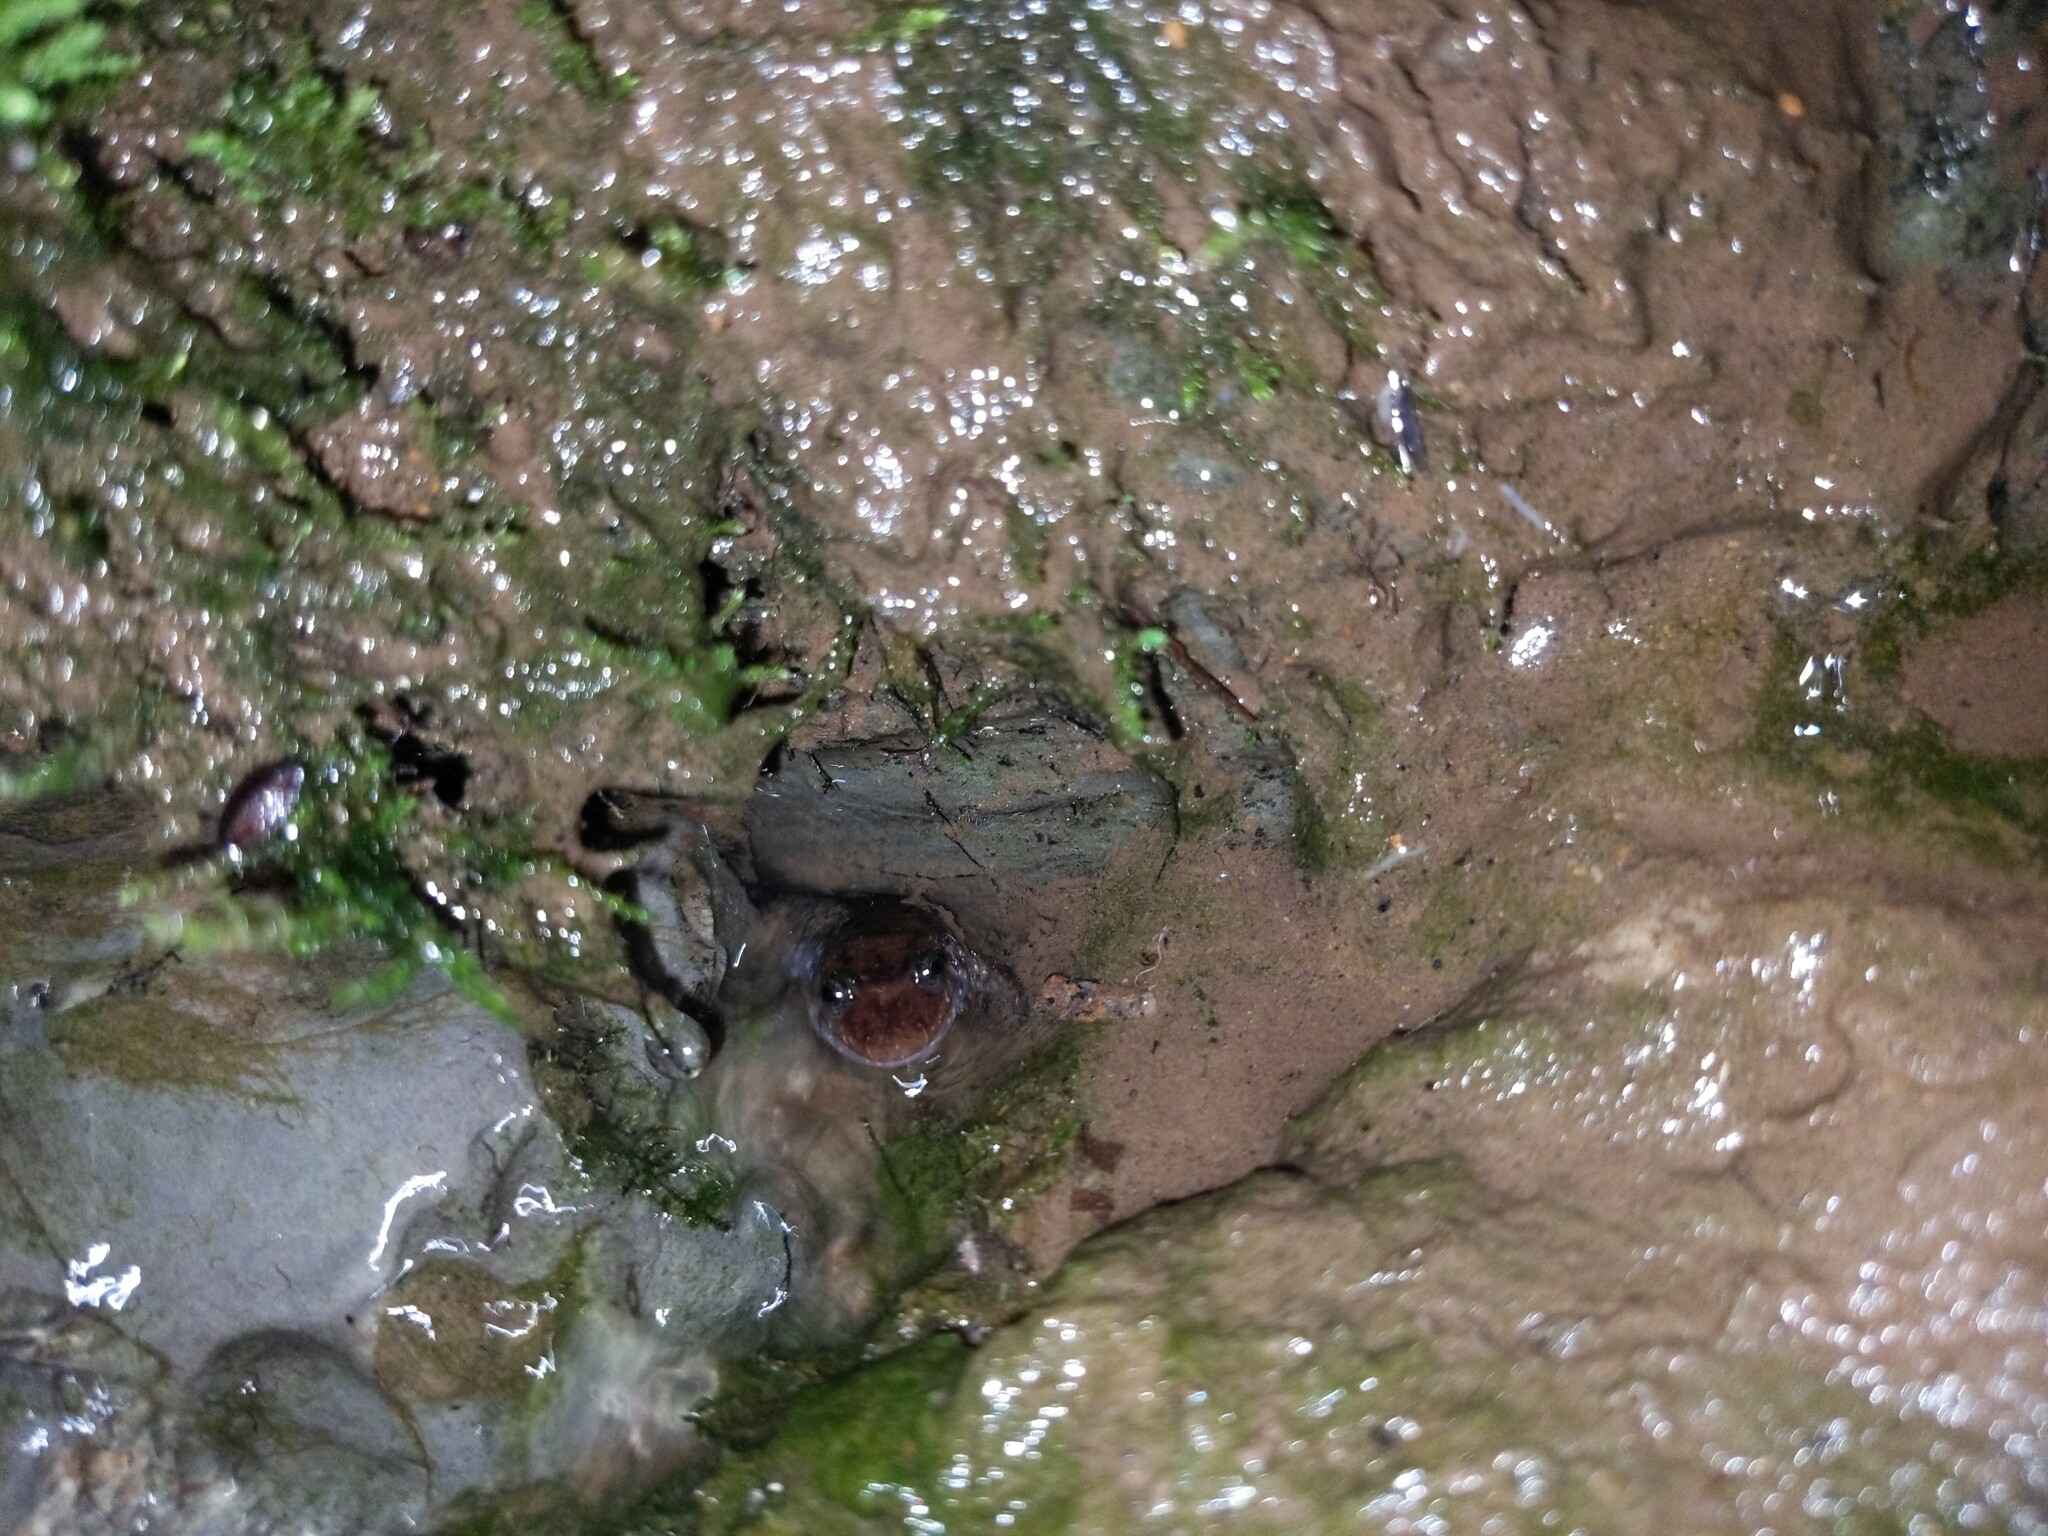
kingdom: Animalia
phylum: Chordata
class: Amphibia
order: Caudata
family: Plethodontidae
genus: Desmognathus
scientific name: Desmognathus monticola
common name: Seal salamander
